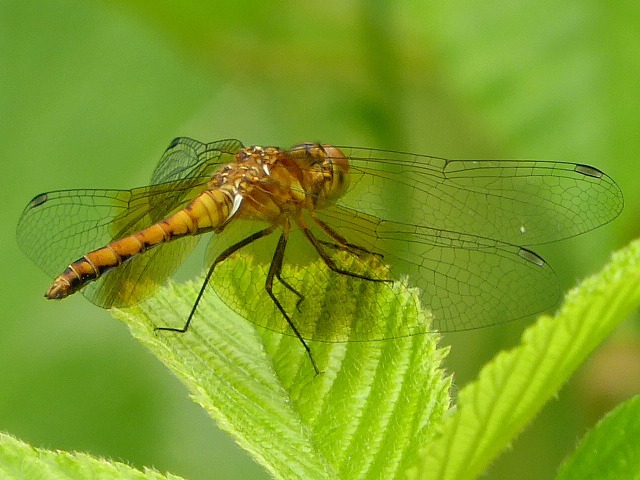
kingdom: Animalia
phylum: Arthropoda
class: Insecta
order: Odonata
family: Libellulidae
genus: Sympetrum
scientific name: Sympetrum semicinctum
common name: Band-winged meadowhawk
